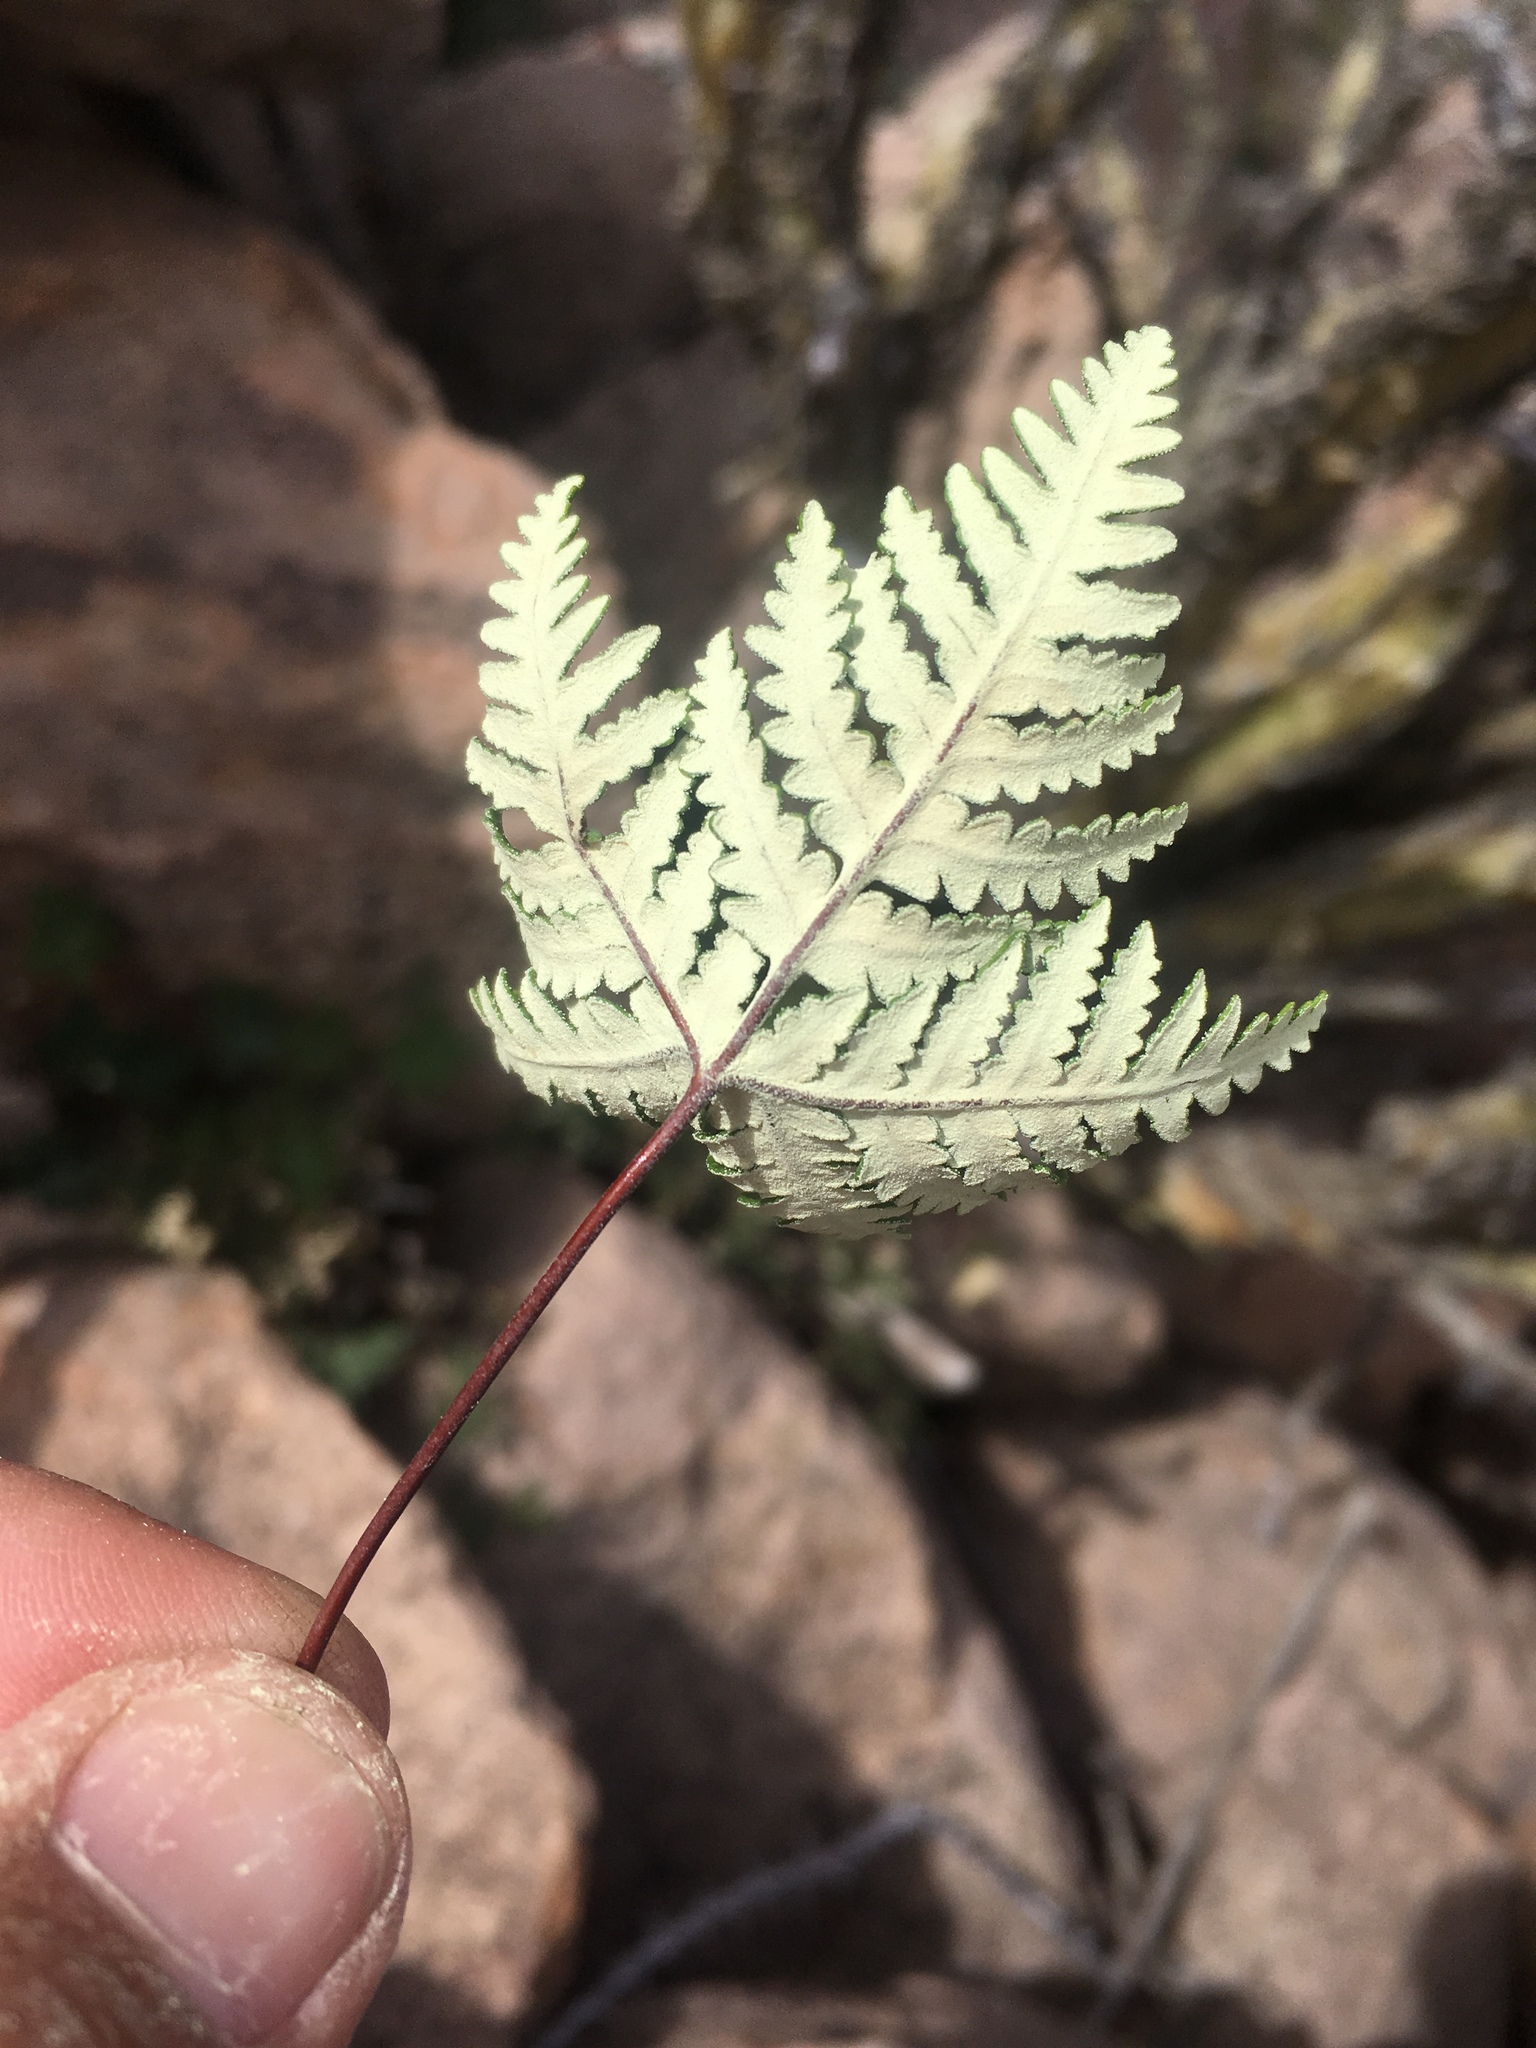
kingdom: Plantae
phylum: Tracheophyta
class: Polypodiopsida
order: Polypodiales
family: Pteridaceae
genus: Notholaena
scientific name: Notholaena standleyi
